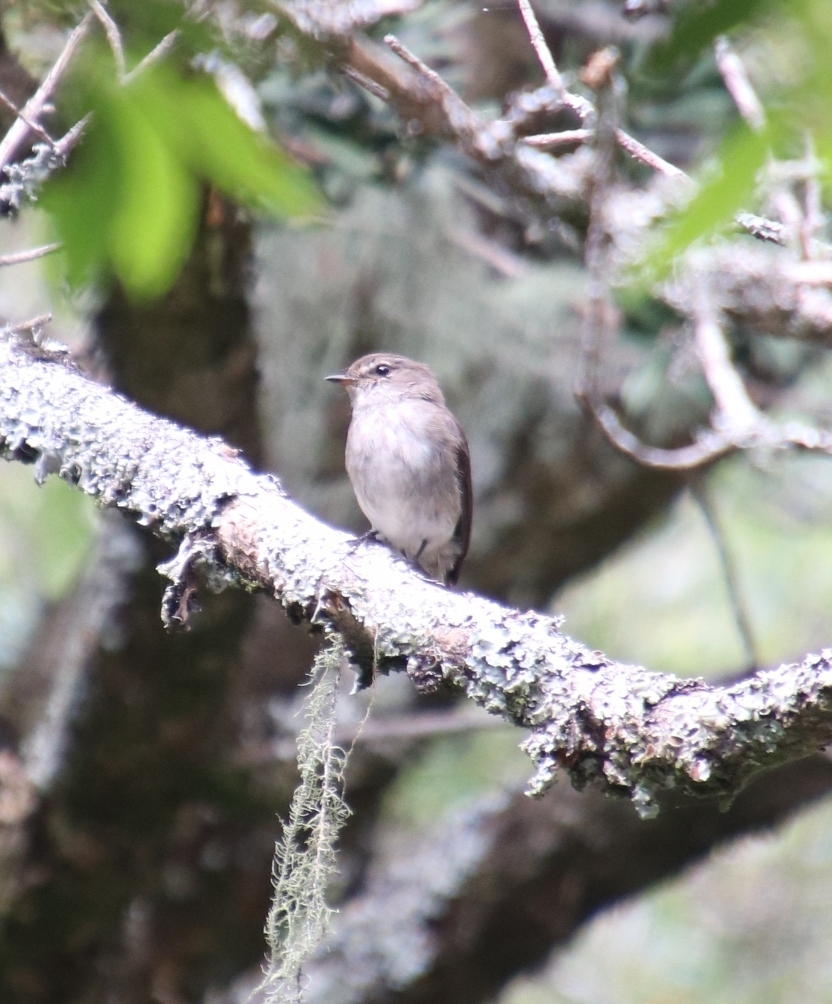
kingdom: Animalia
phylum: Chordata
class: Aves
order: Passeriformes
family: Muscicapidae
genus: Muscicapa
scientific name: Muscicapa adusta
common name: African dusky flycatcher
